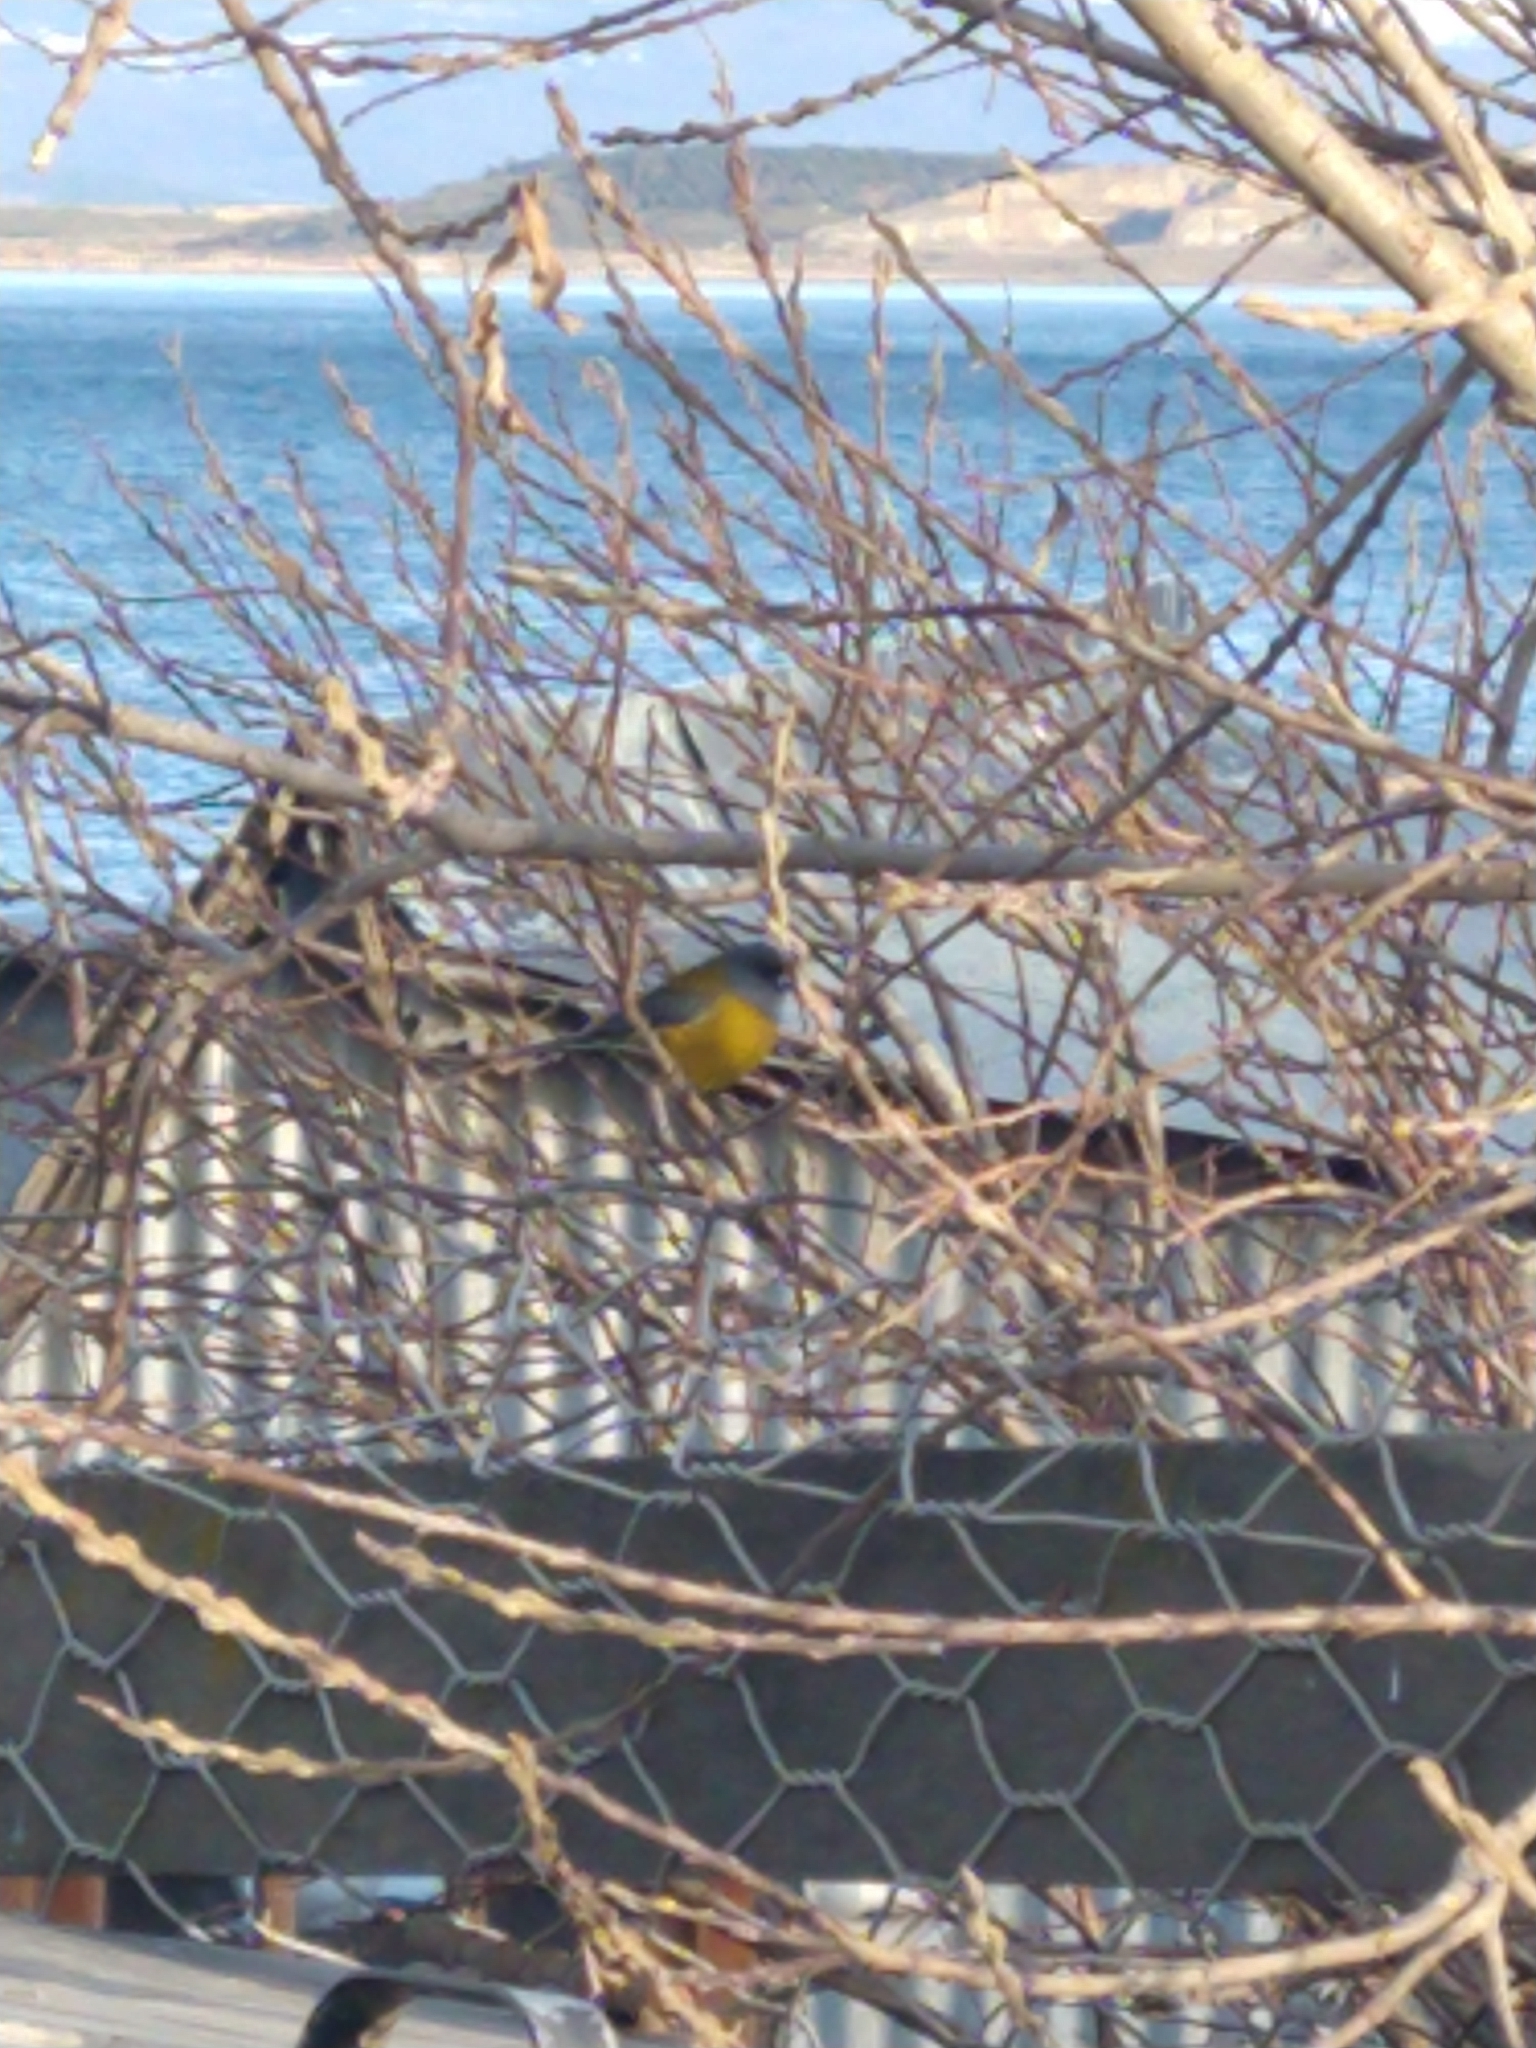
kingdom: Animalia
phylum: Chordata
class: Aves
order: Passeriformes
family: Thraupidae
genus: Phrygilus
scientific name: Phrygilus patagonicus
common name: Patagonian sierra finch
